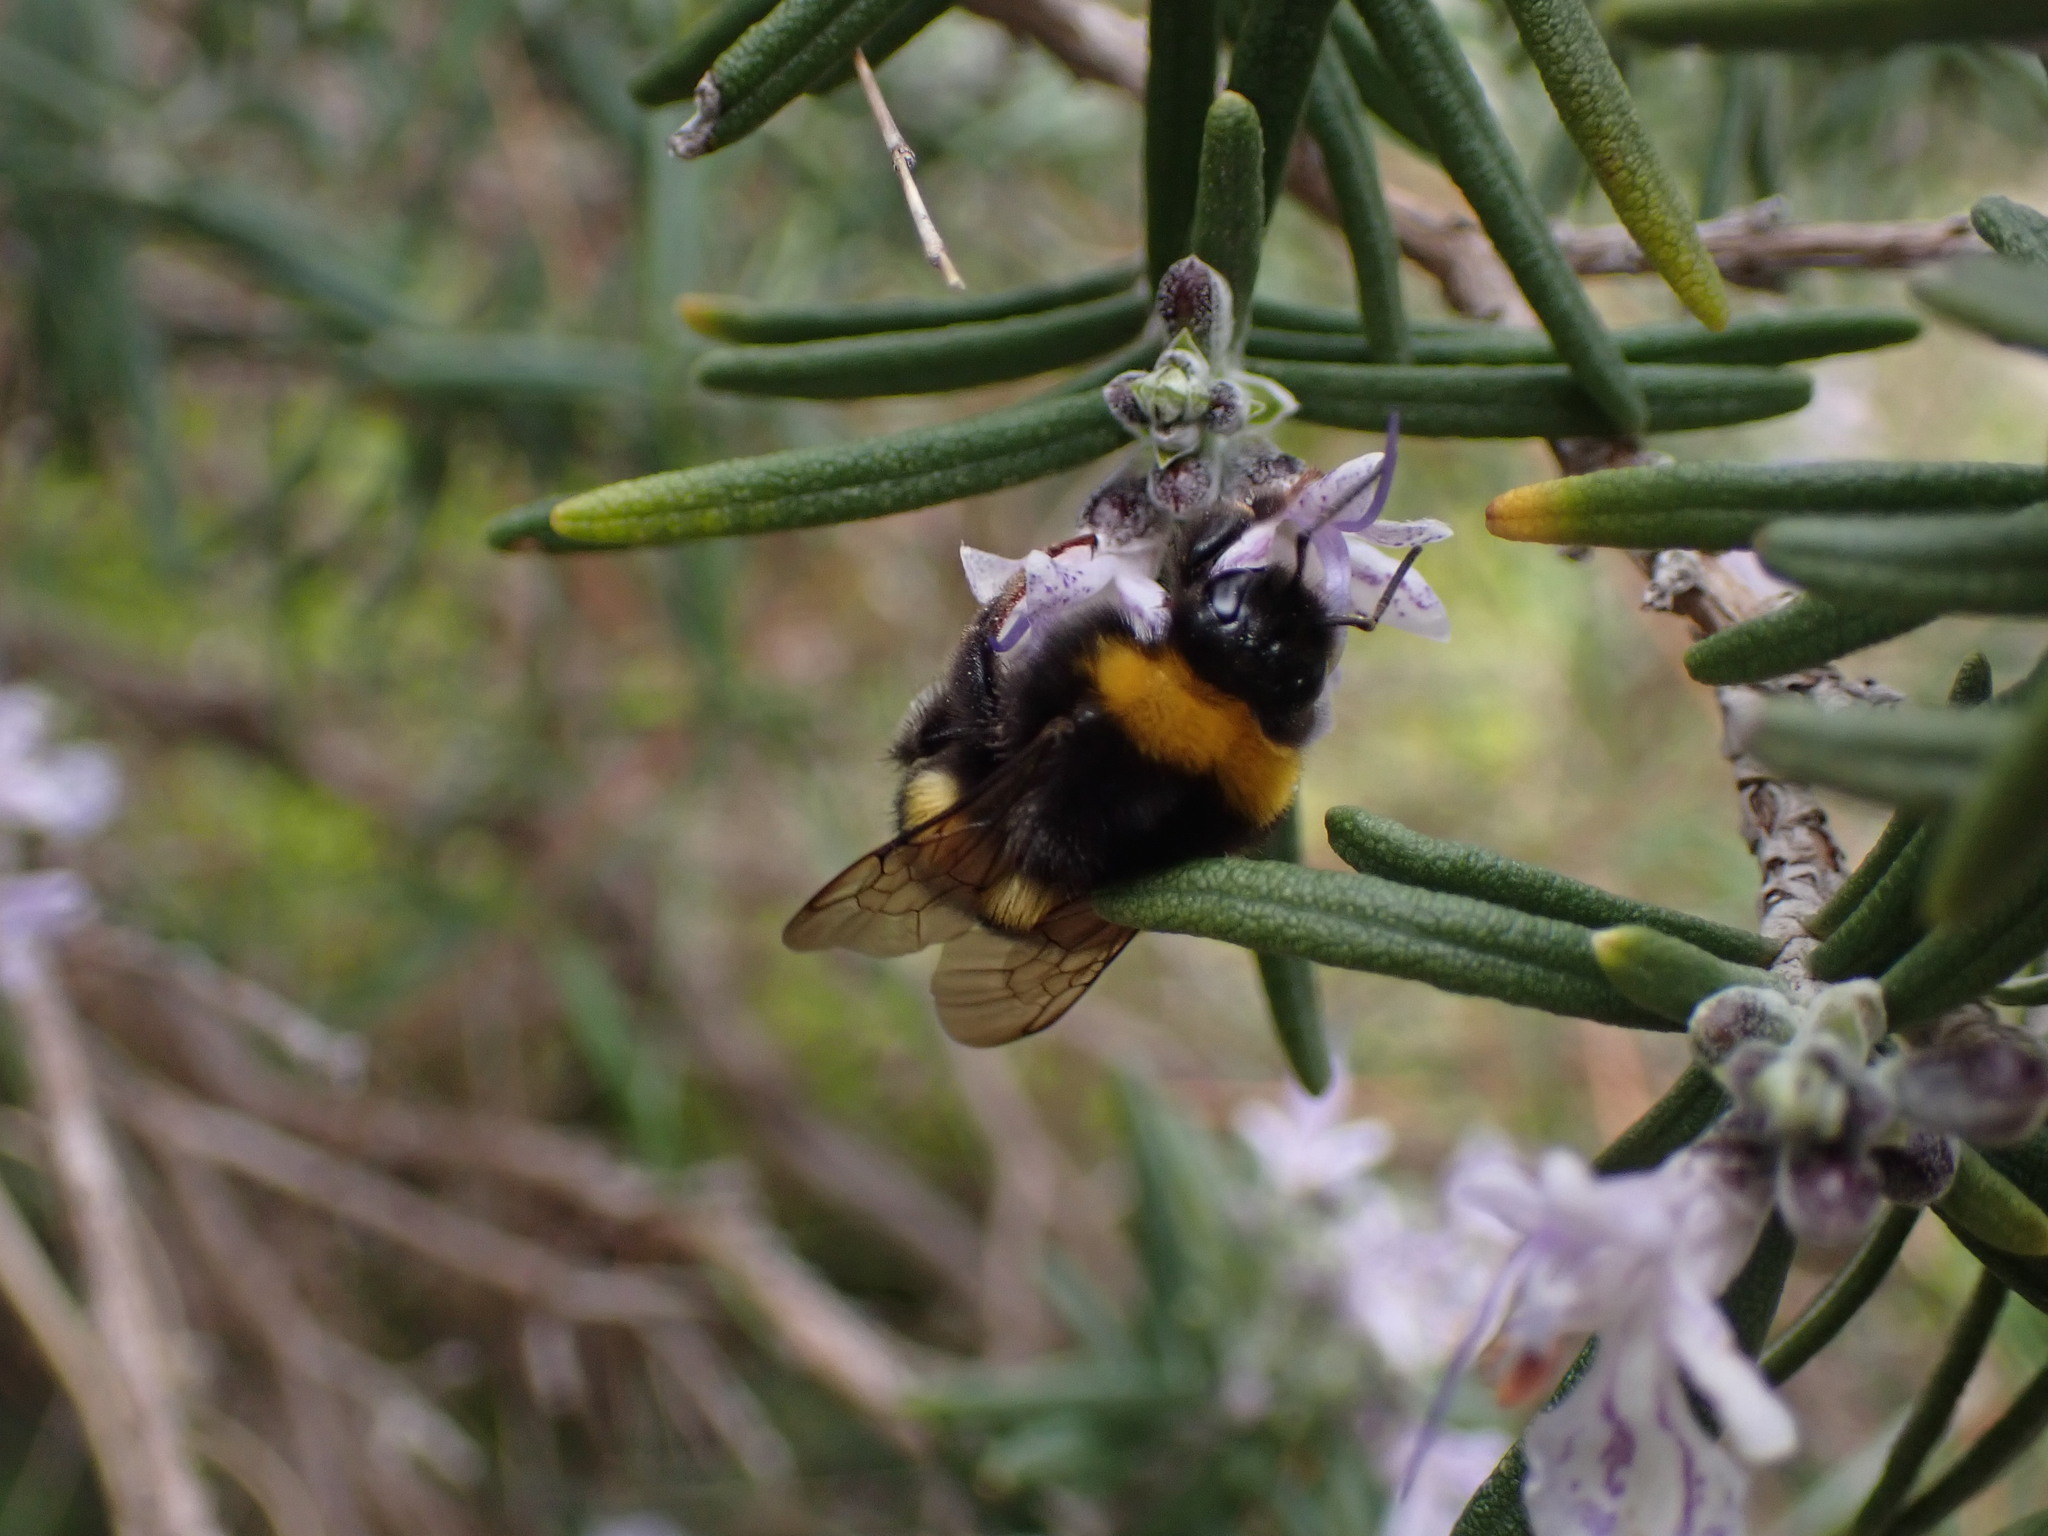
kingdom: Animalia
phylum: Arthropoda
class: Insecta
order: Hymenoptera
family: Apidae
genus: Bombus
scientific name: Bombus
